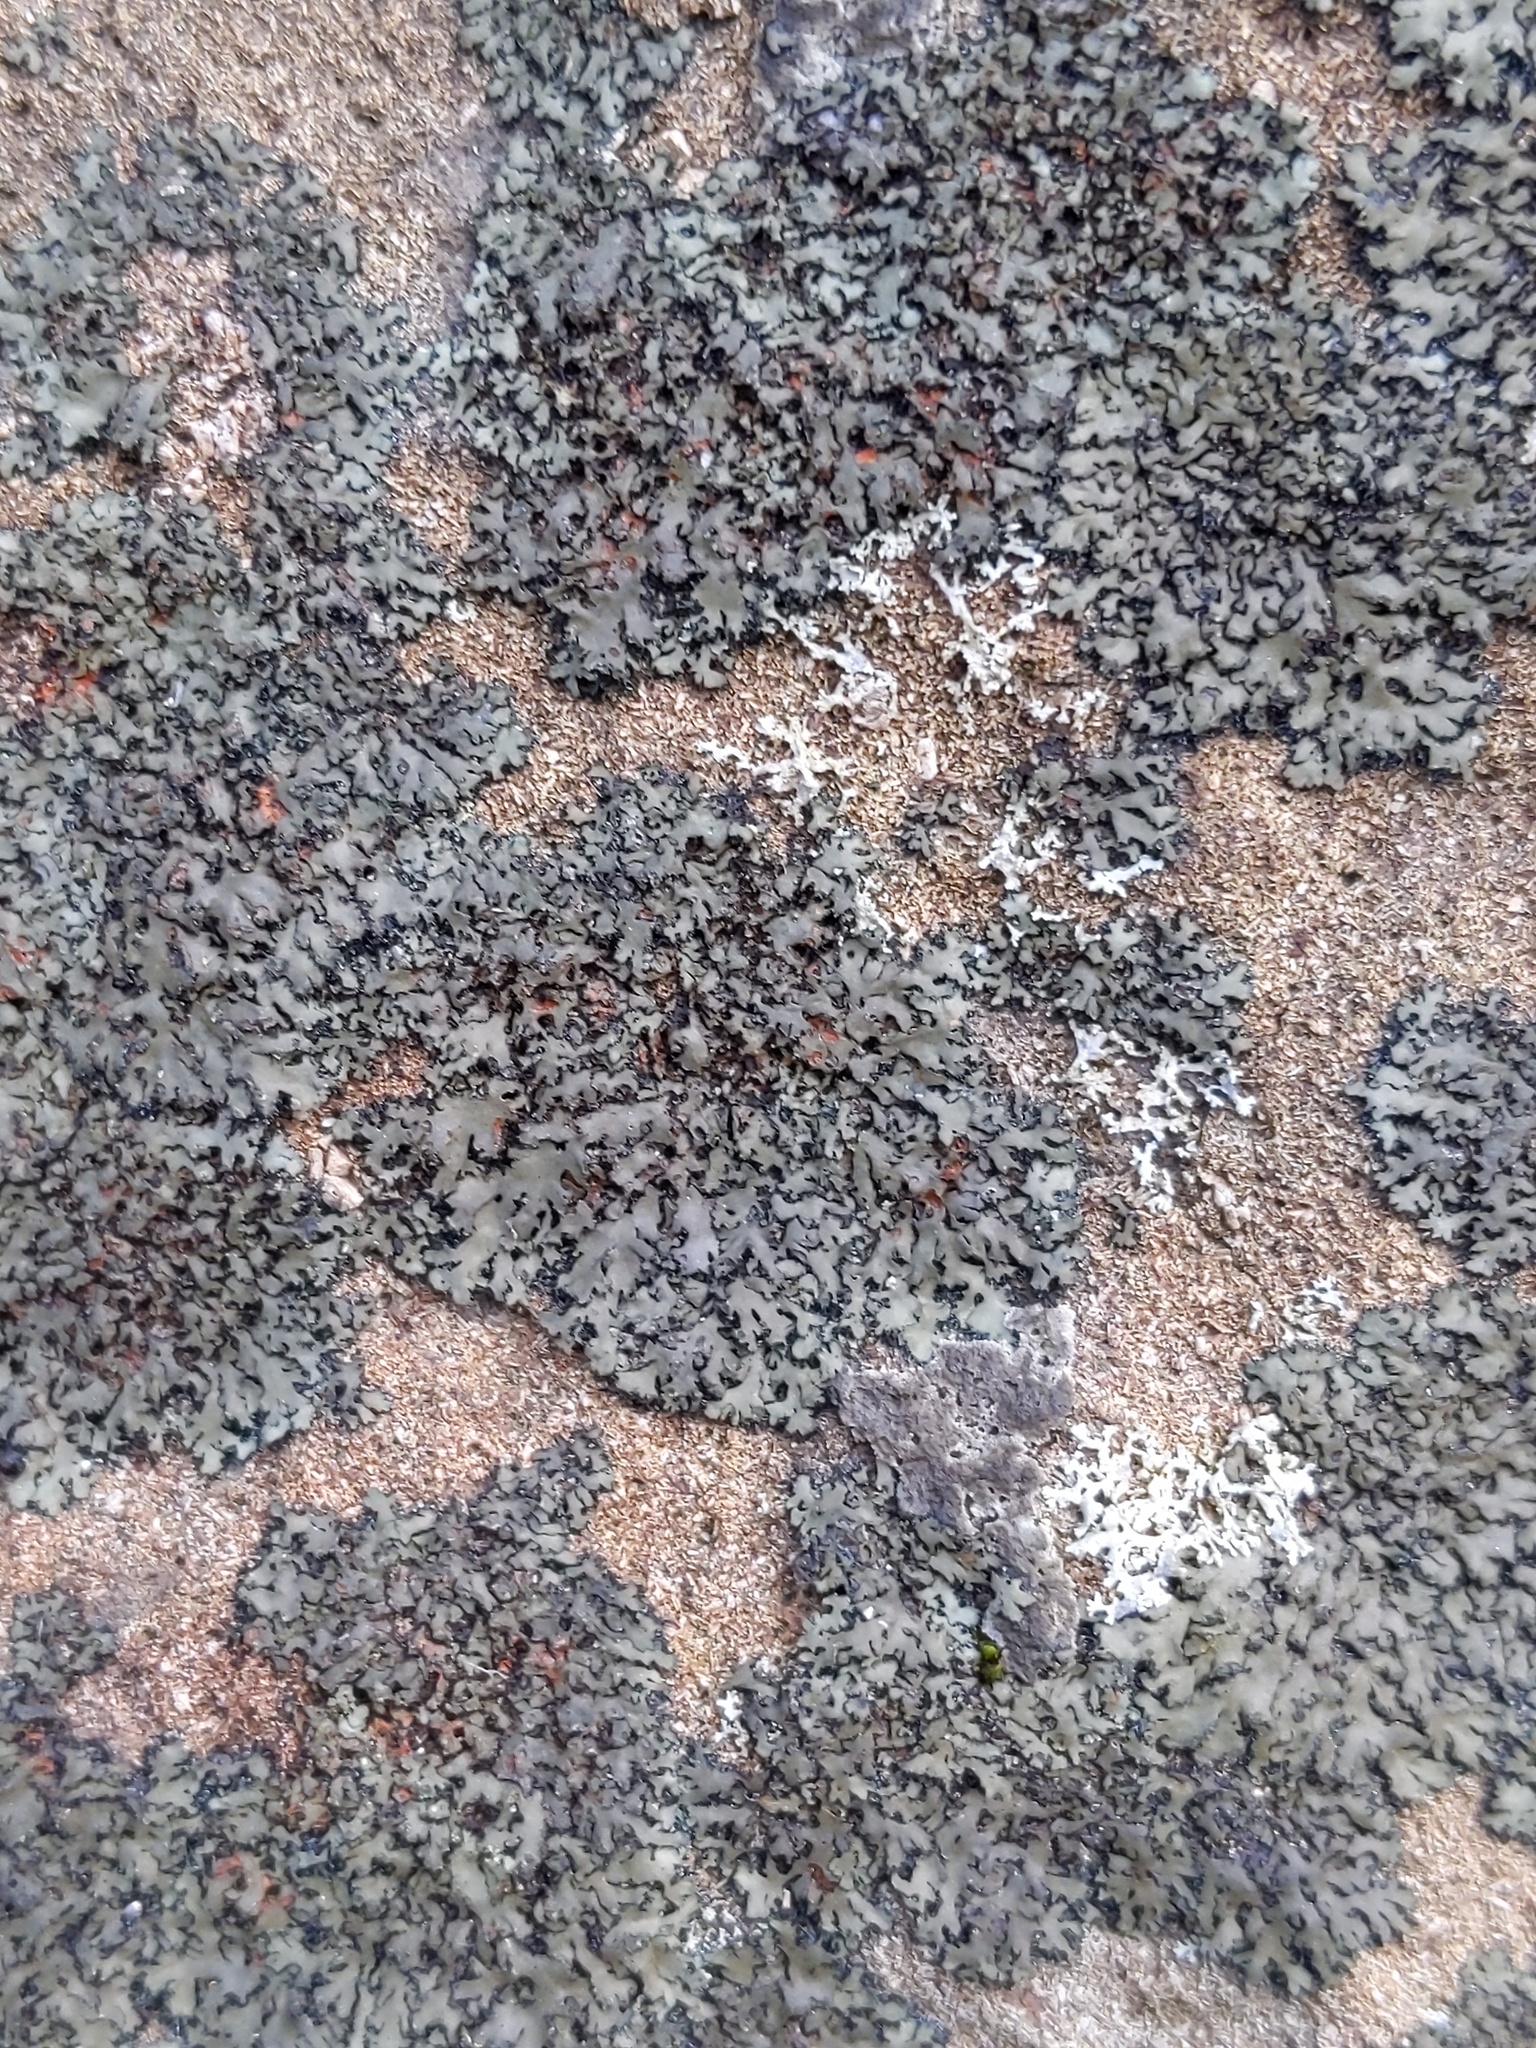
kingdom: Fungi
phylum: Ascomycota
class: Lecanoromycetes
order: Caliciales
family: Physciaceae
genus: Phaeophyscia
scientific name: Phaeophyscia rubropulchra
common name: Orange-cored shadow lichen
